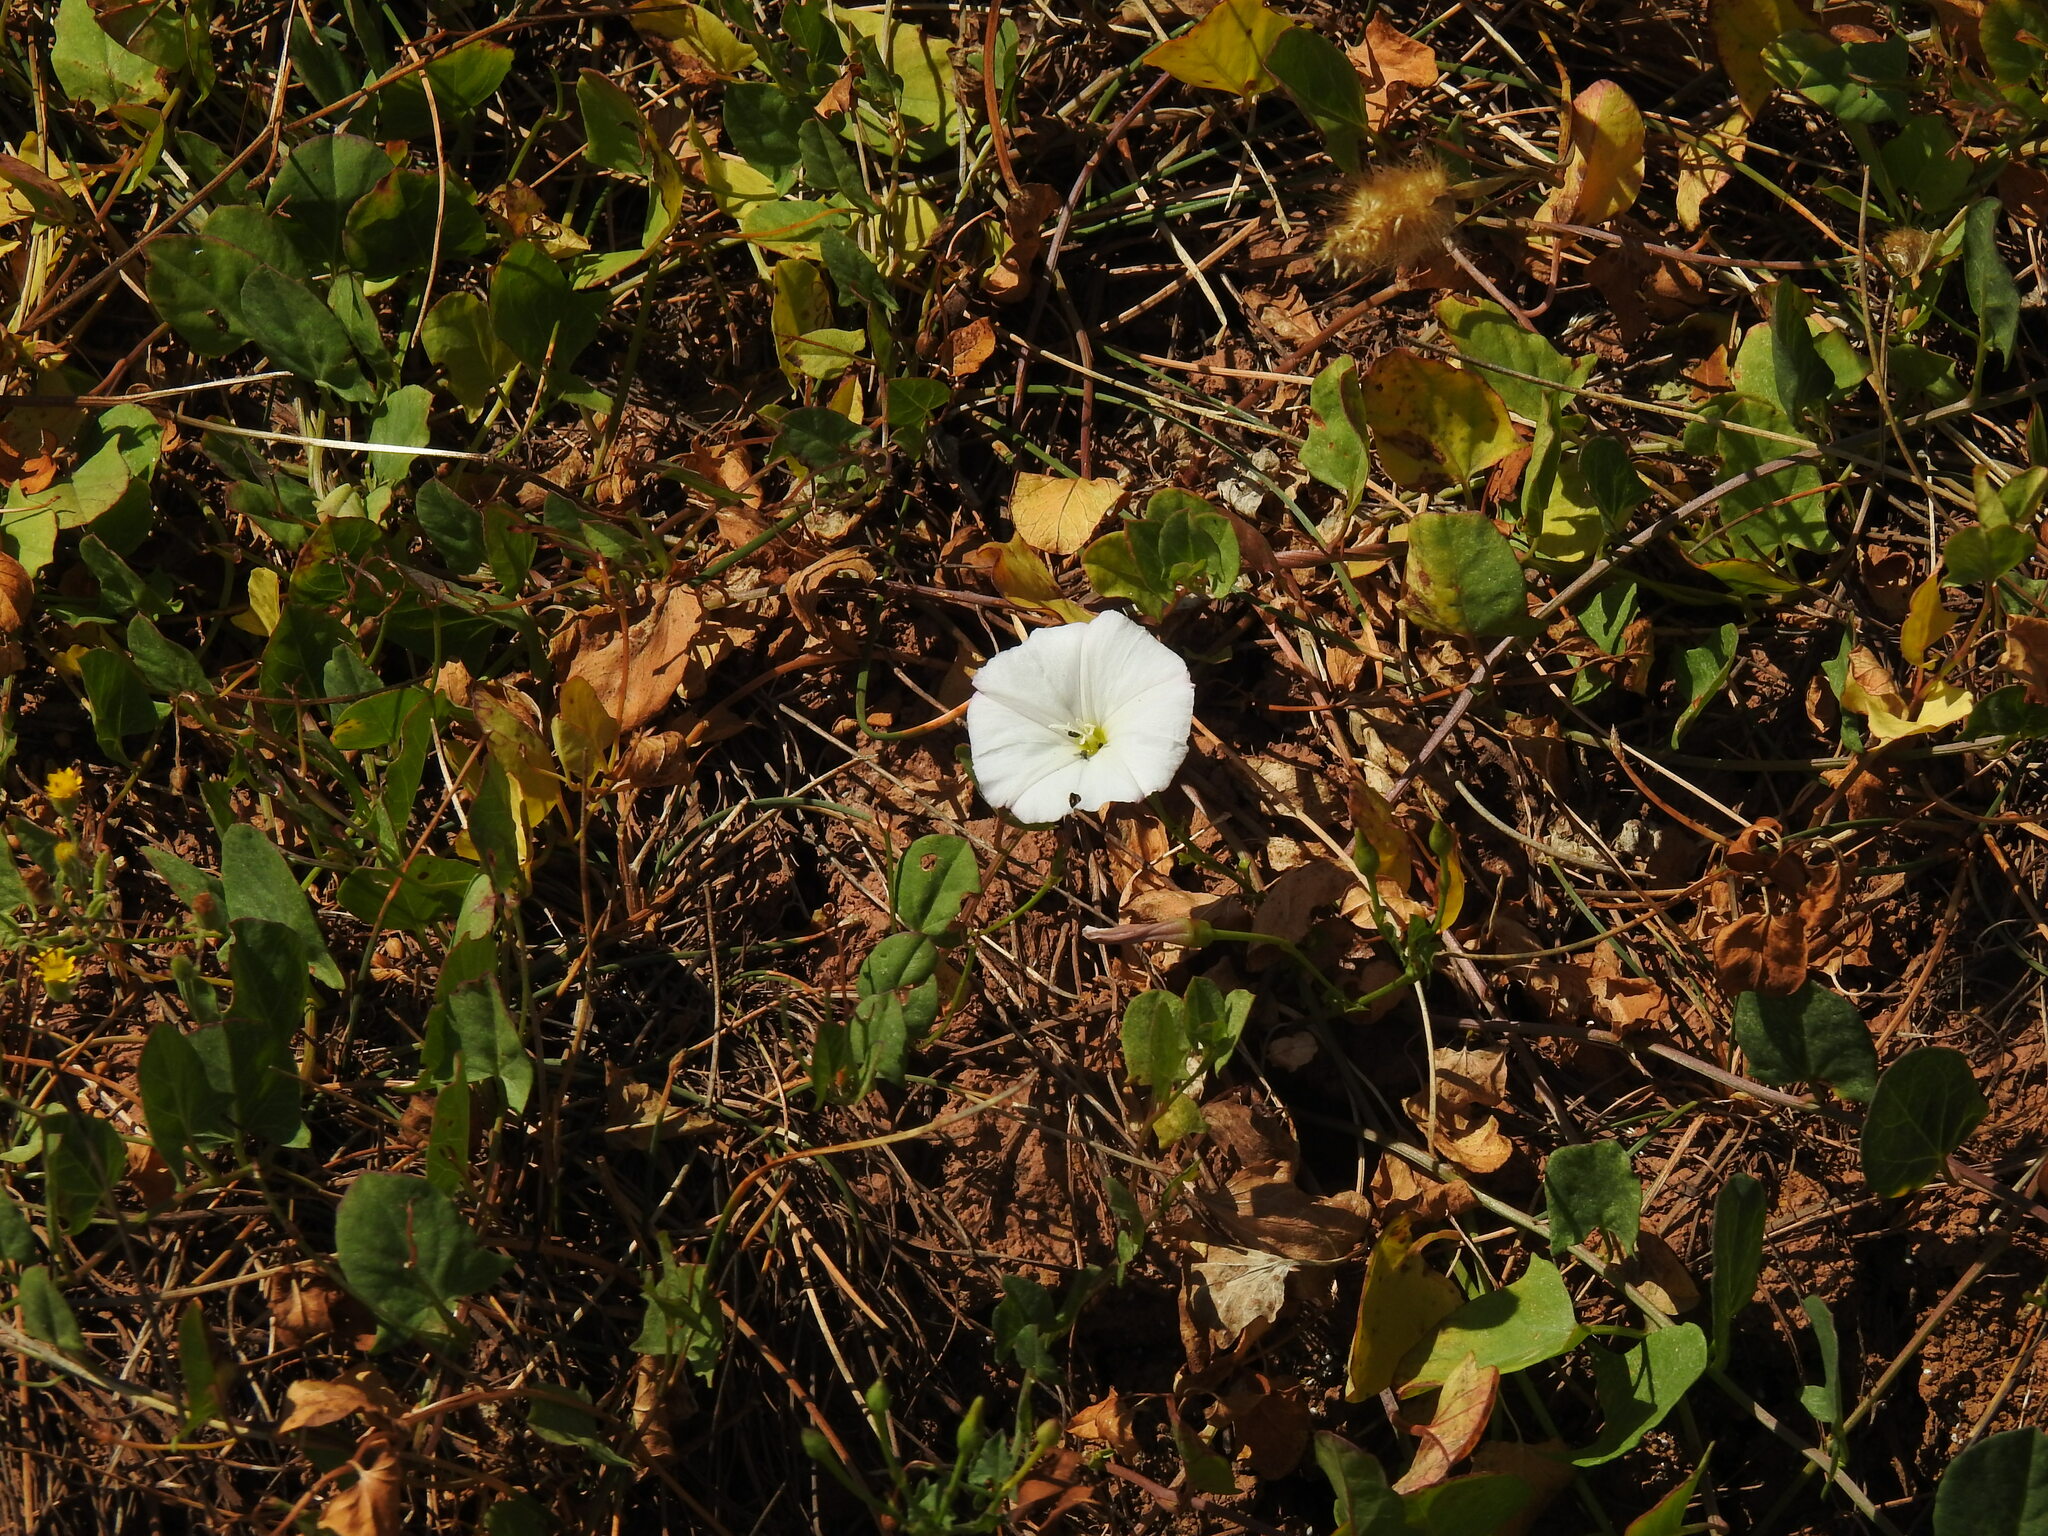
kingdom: Plantae
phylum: Tracheophyta
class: Magnoliopsida
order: Solanales
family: Convolvulaceae
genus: Convolvulus
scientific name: Convolvulus arvensis
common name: Field bindweed
